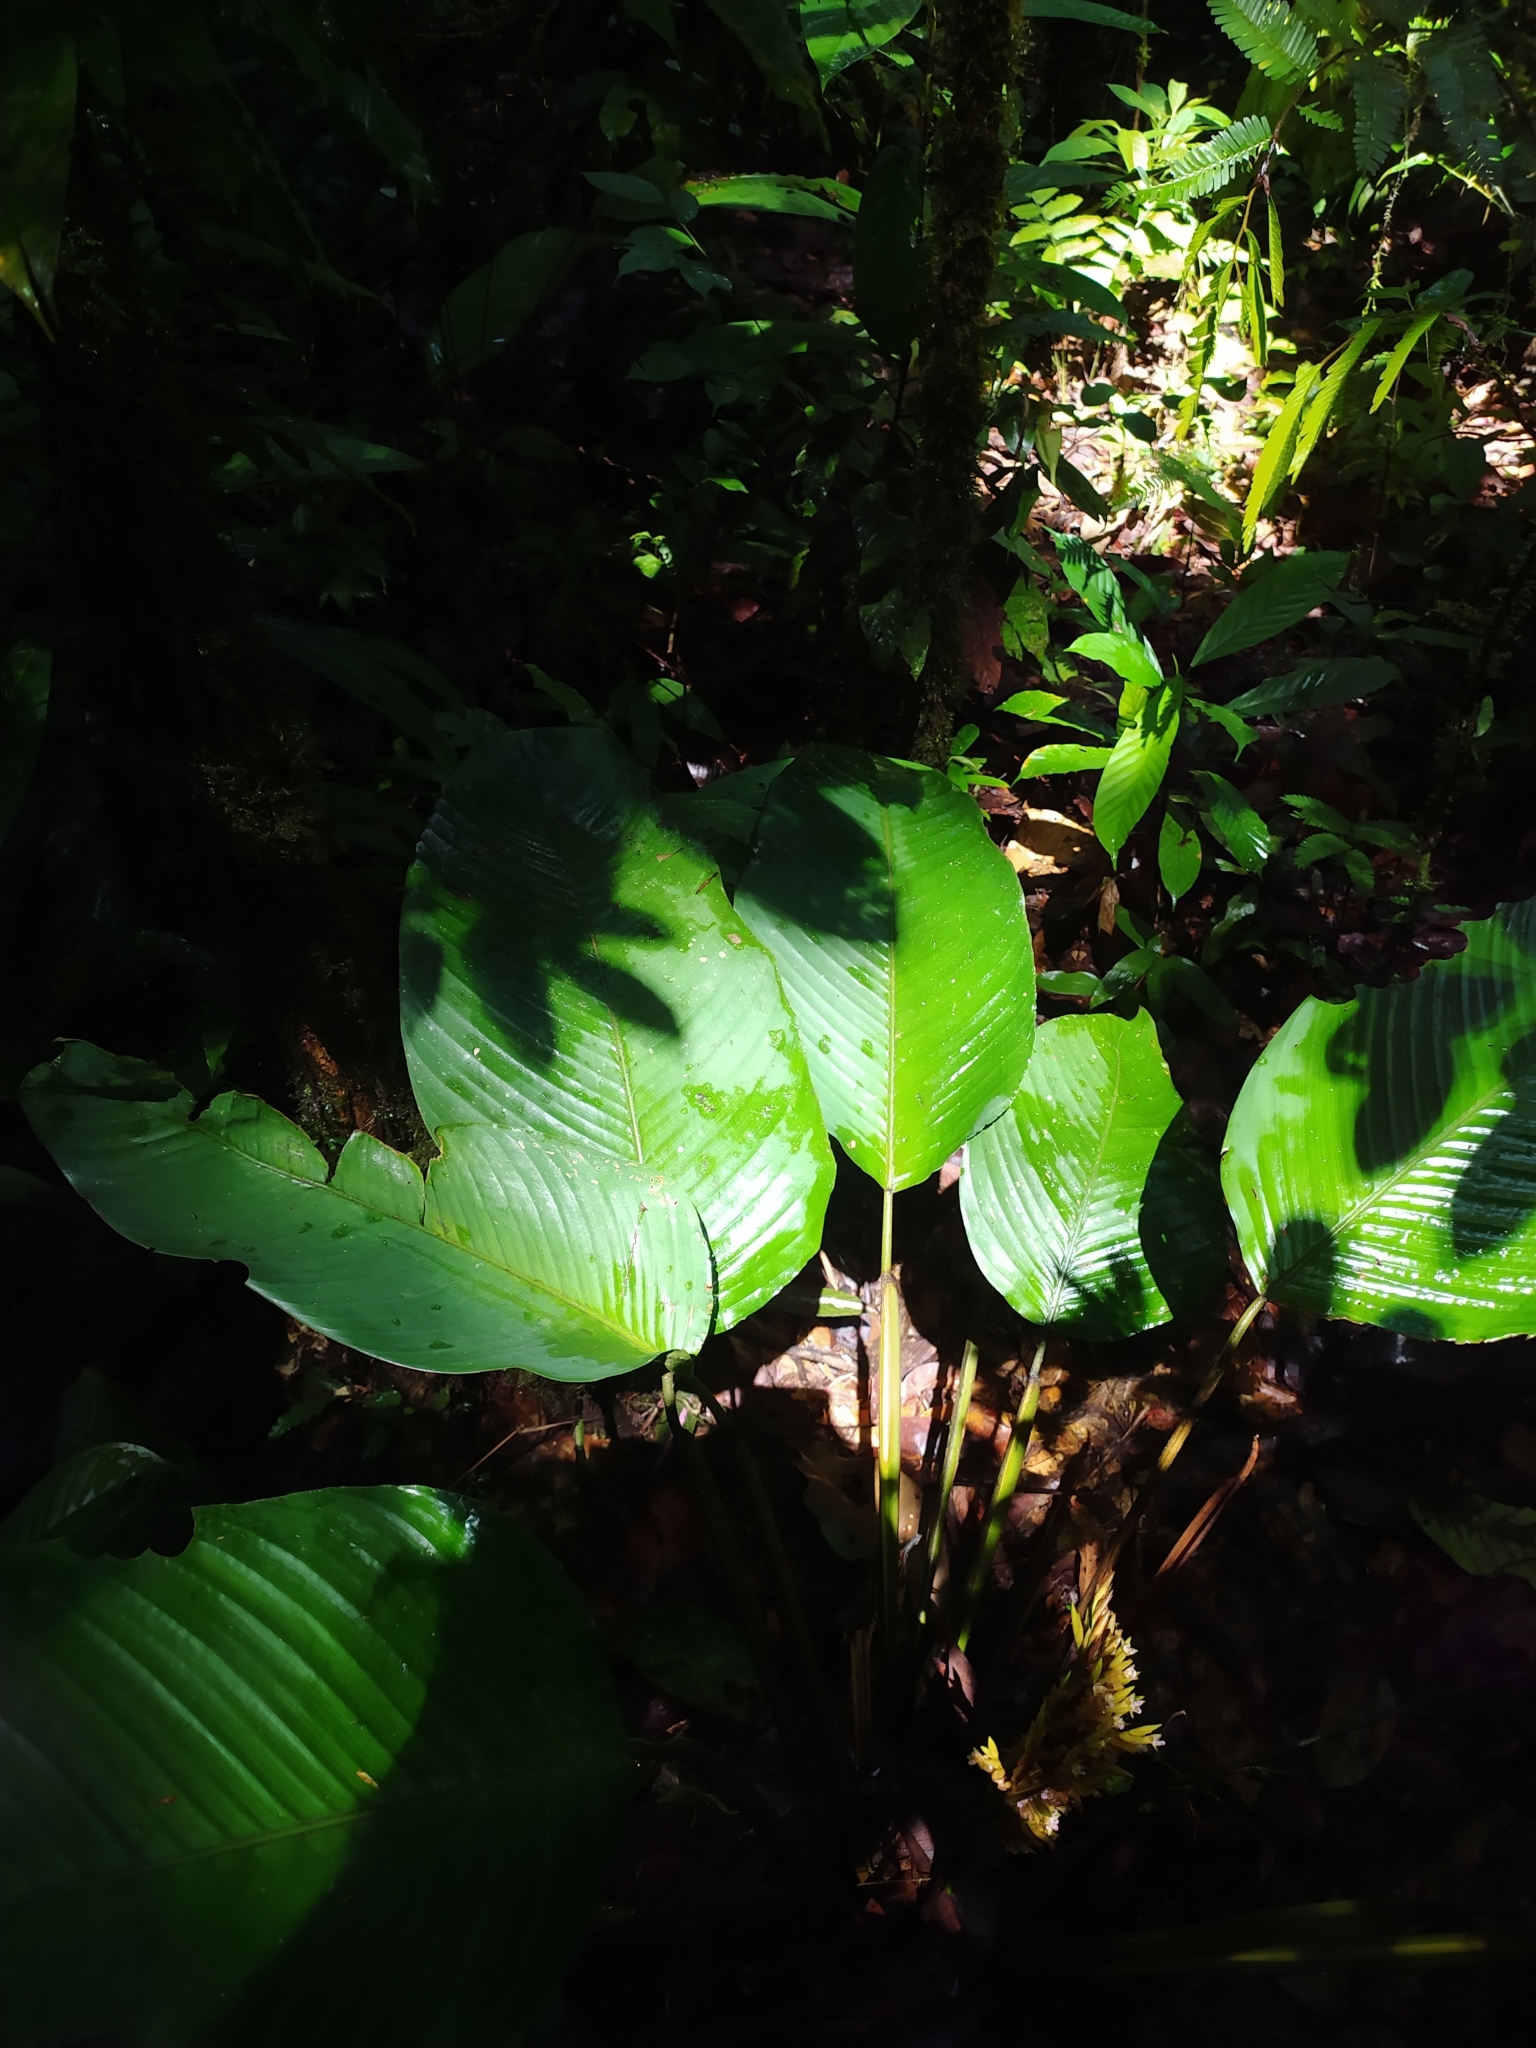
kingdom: Plantae
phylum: Tracheophyta
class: Liliopsida
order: Zingiberales
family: Marantaceae
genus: Monotagma
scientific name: Monotagma spicatum
